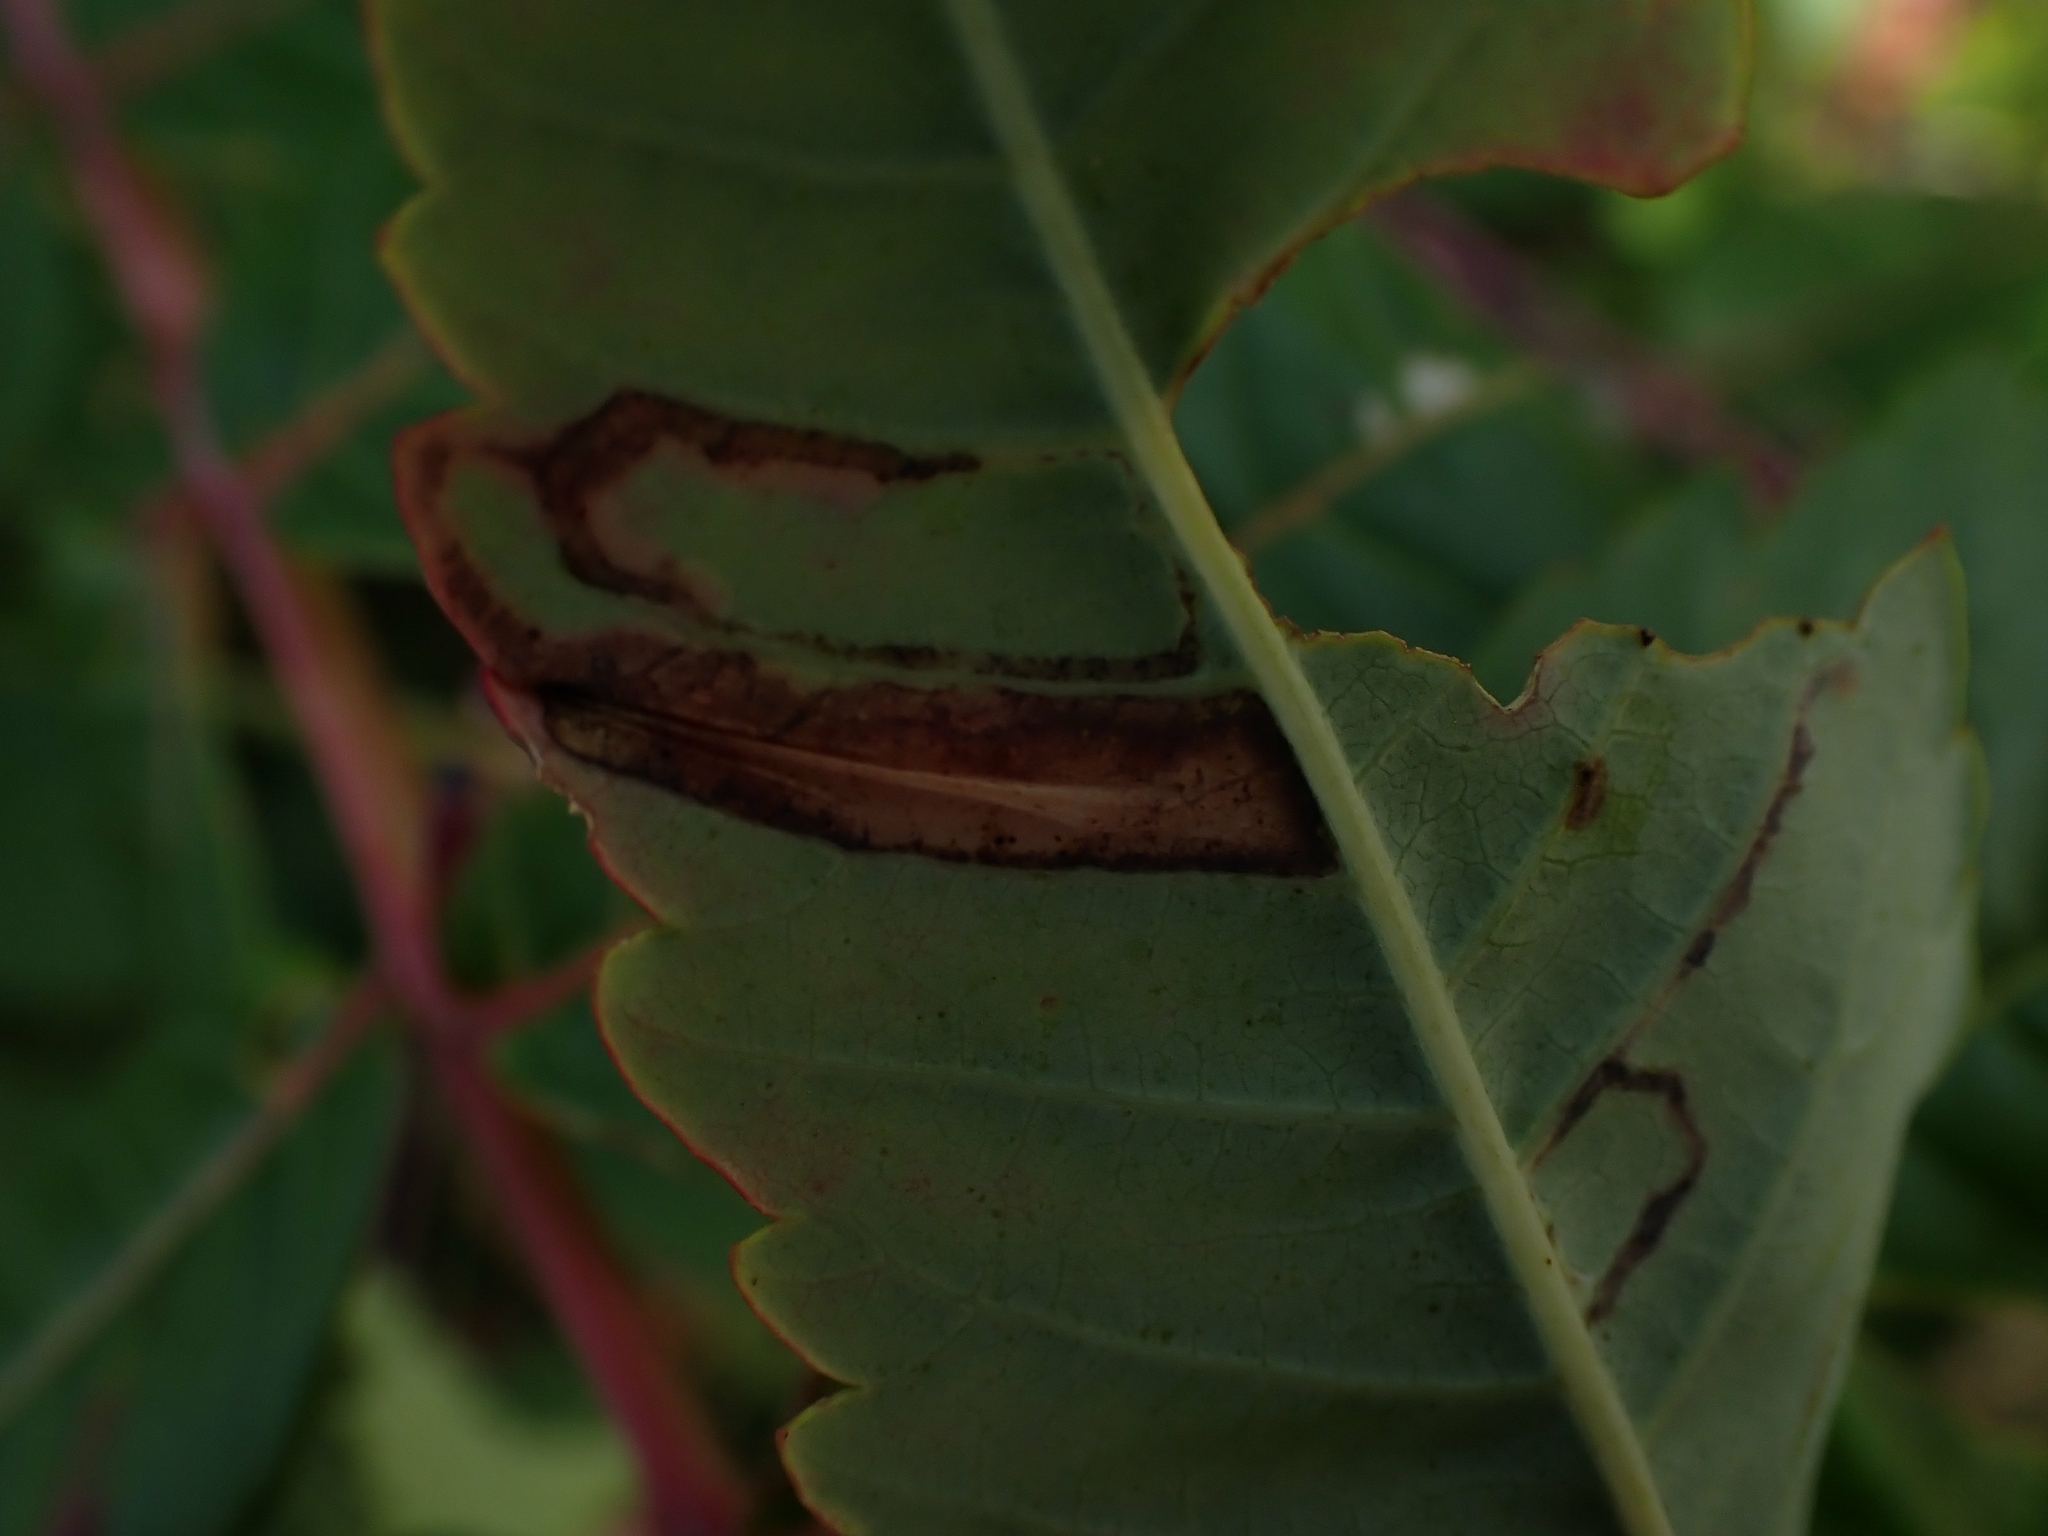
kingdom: Animalia
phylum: Arthropoda
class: Insecta
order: Lepidoptera
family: Gracillariidae
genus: Caloptilia
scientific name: Caloptilia rhoifoliella
